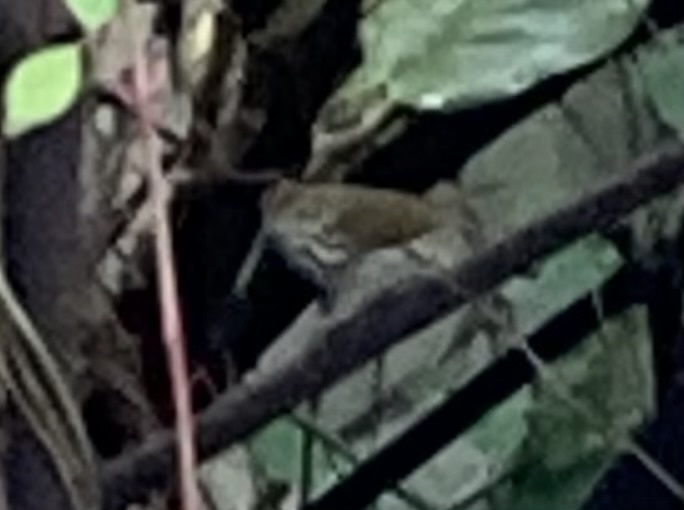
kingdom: Animalia
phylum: Chordata
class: Aves
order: Passeriformes
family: Parulidae
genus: Seiurus
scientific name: Seiurus aurocapilla
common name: Ovenbird
